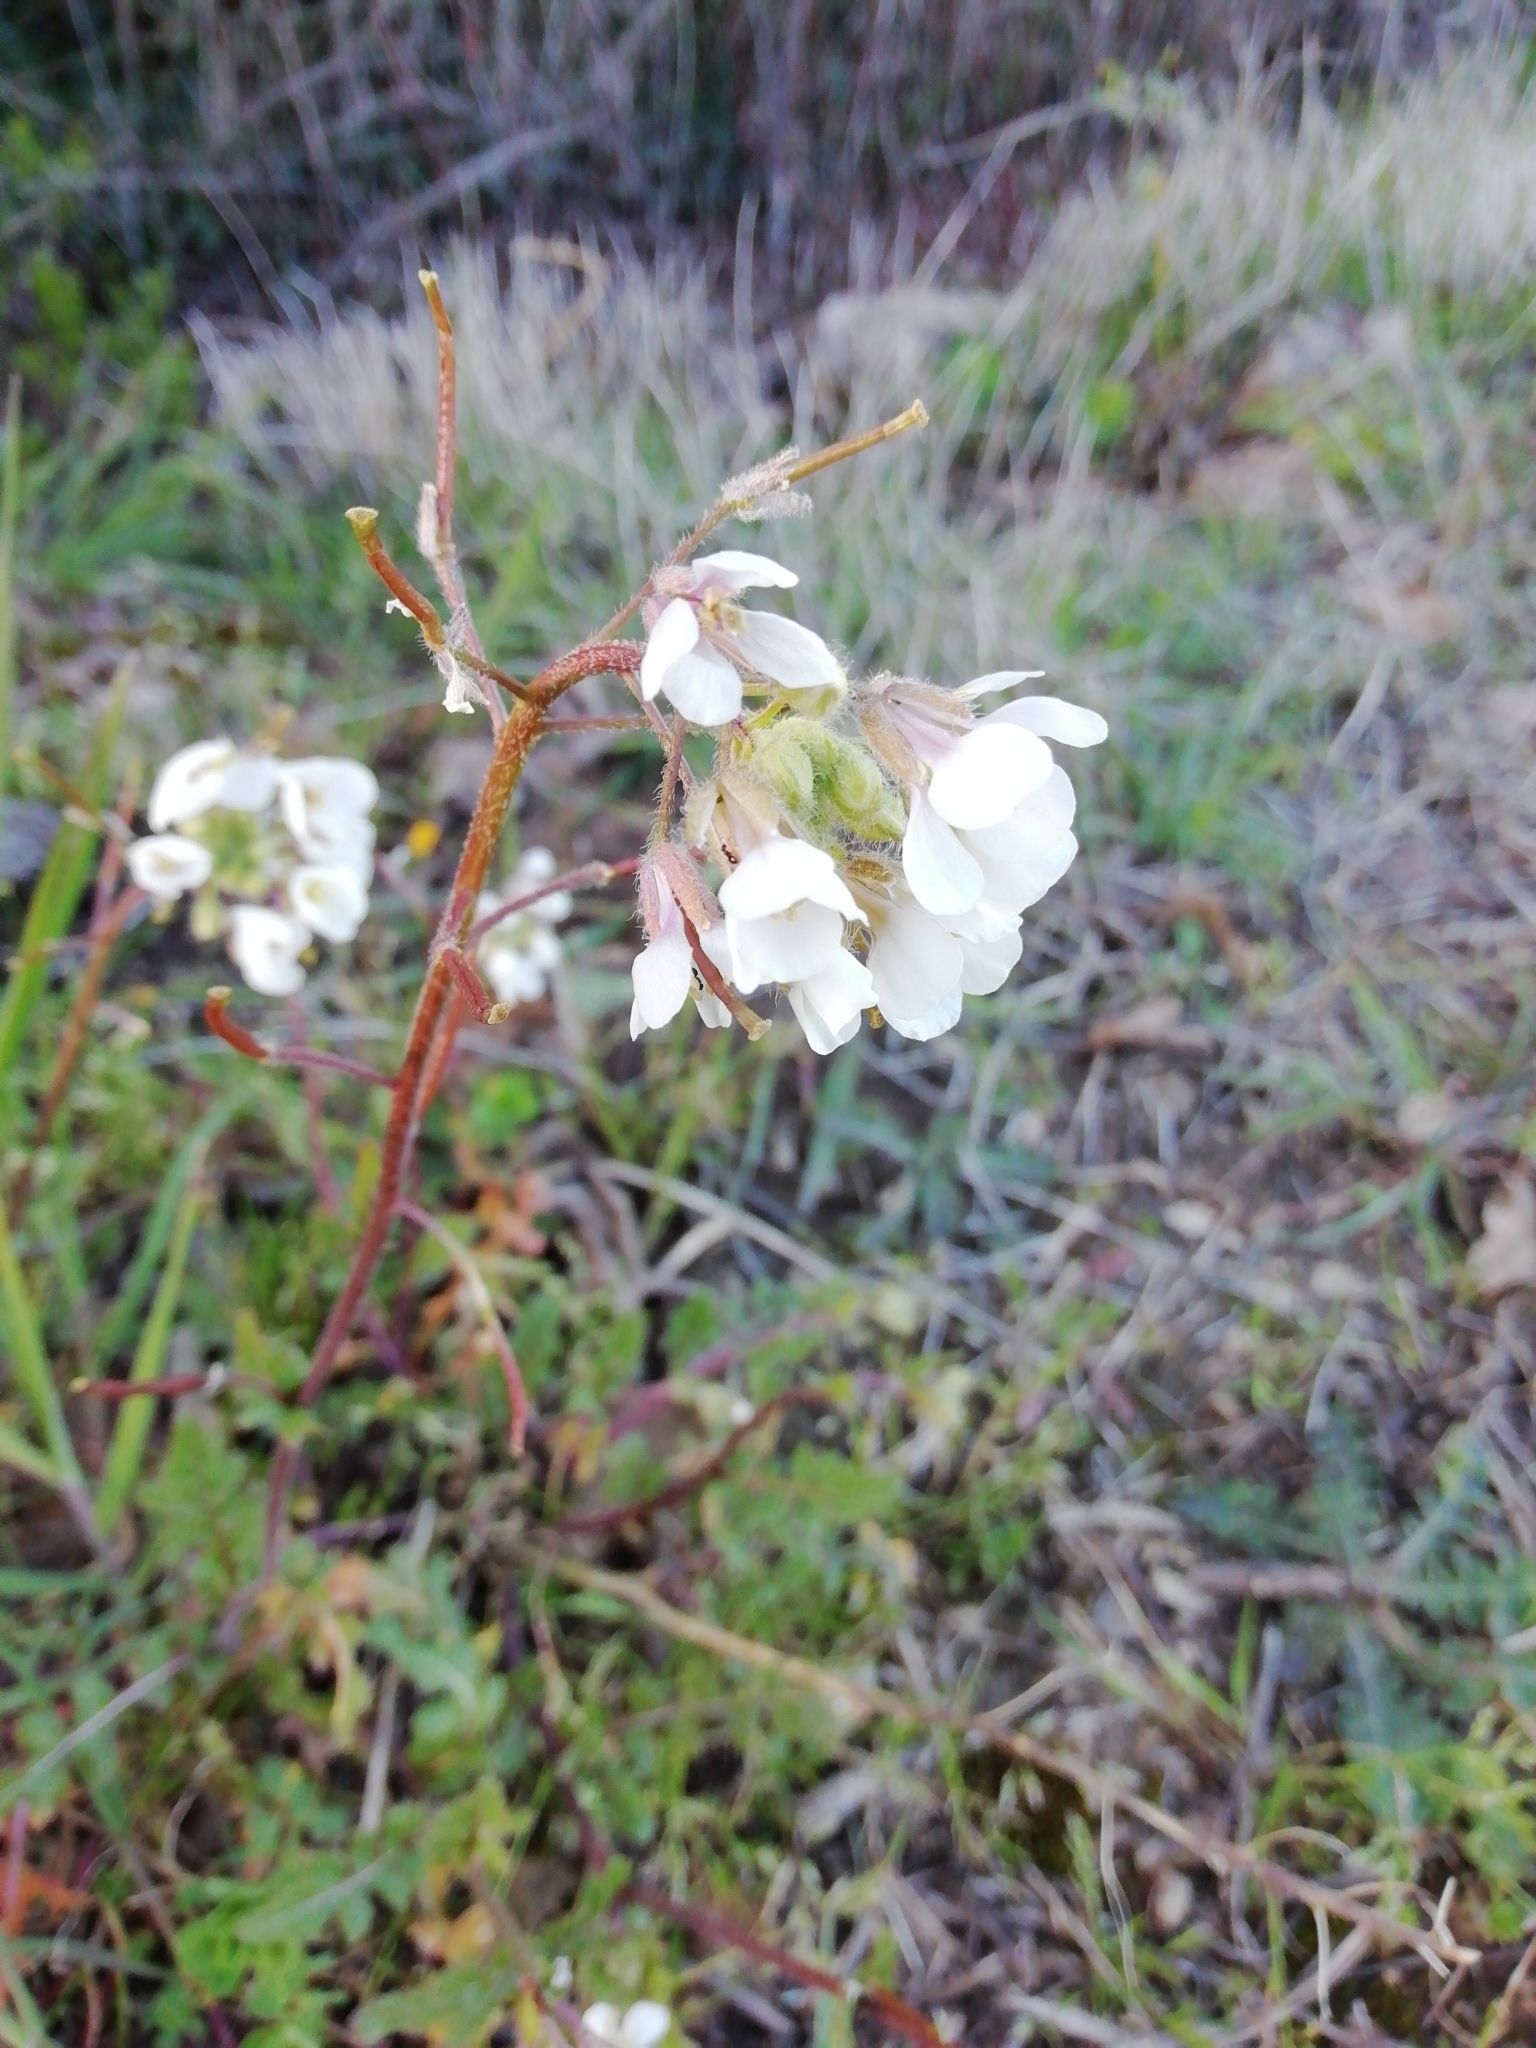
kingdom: Plantae
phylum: Tracheophyta
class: Magnoliopsida
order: Brassicales
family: Brassicaceae
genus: Diplotaxis
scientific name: Diplotaxis erucoides
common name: White rocket
